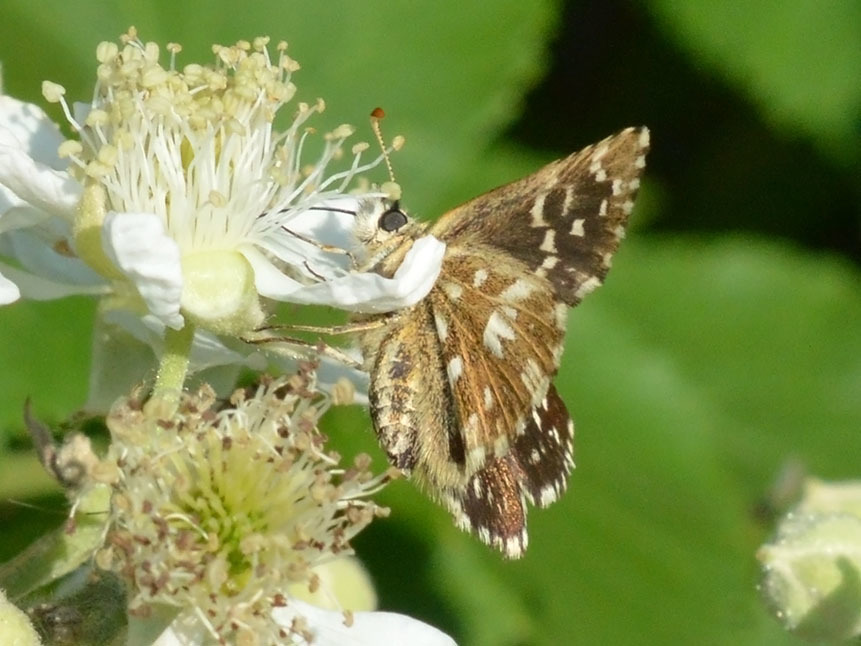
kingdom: Animalia
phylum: Arthropoda
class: Insecta
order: Lepidoptera
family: Hesperiidae
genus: Pyrgus
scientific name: Pyrgus malvae
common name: Grizzled skipper
